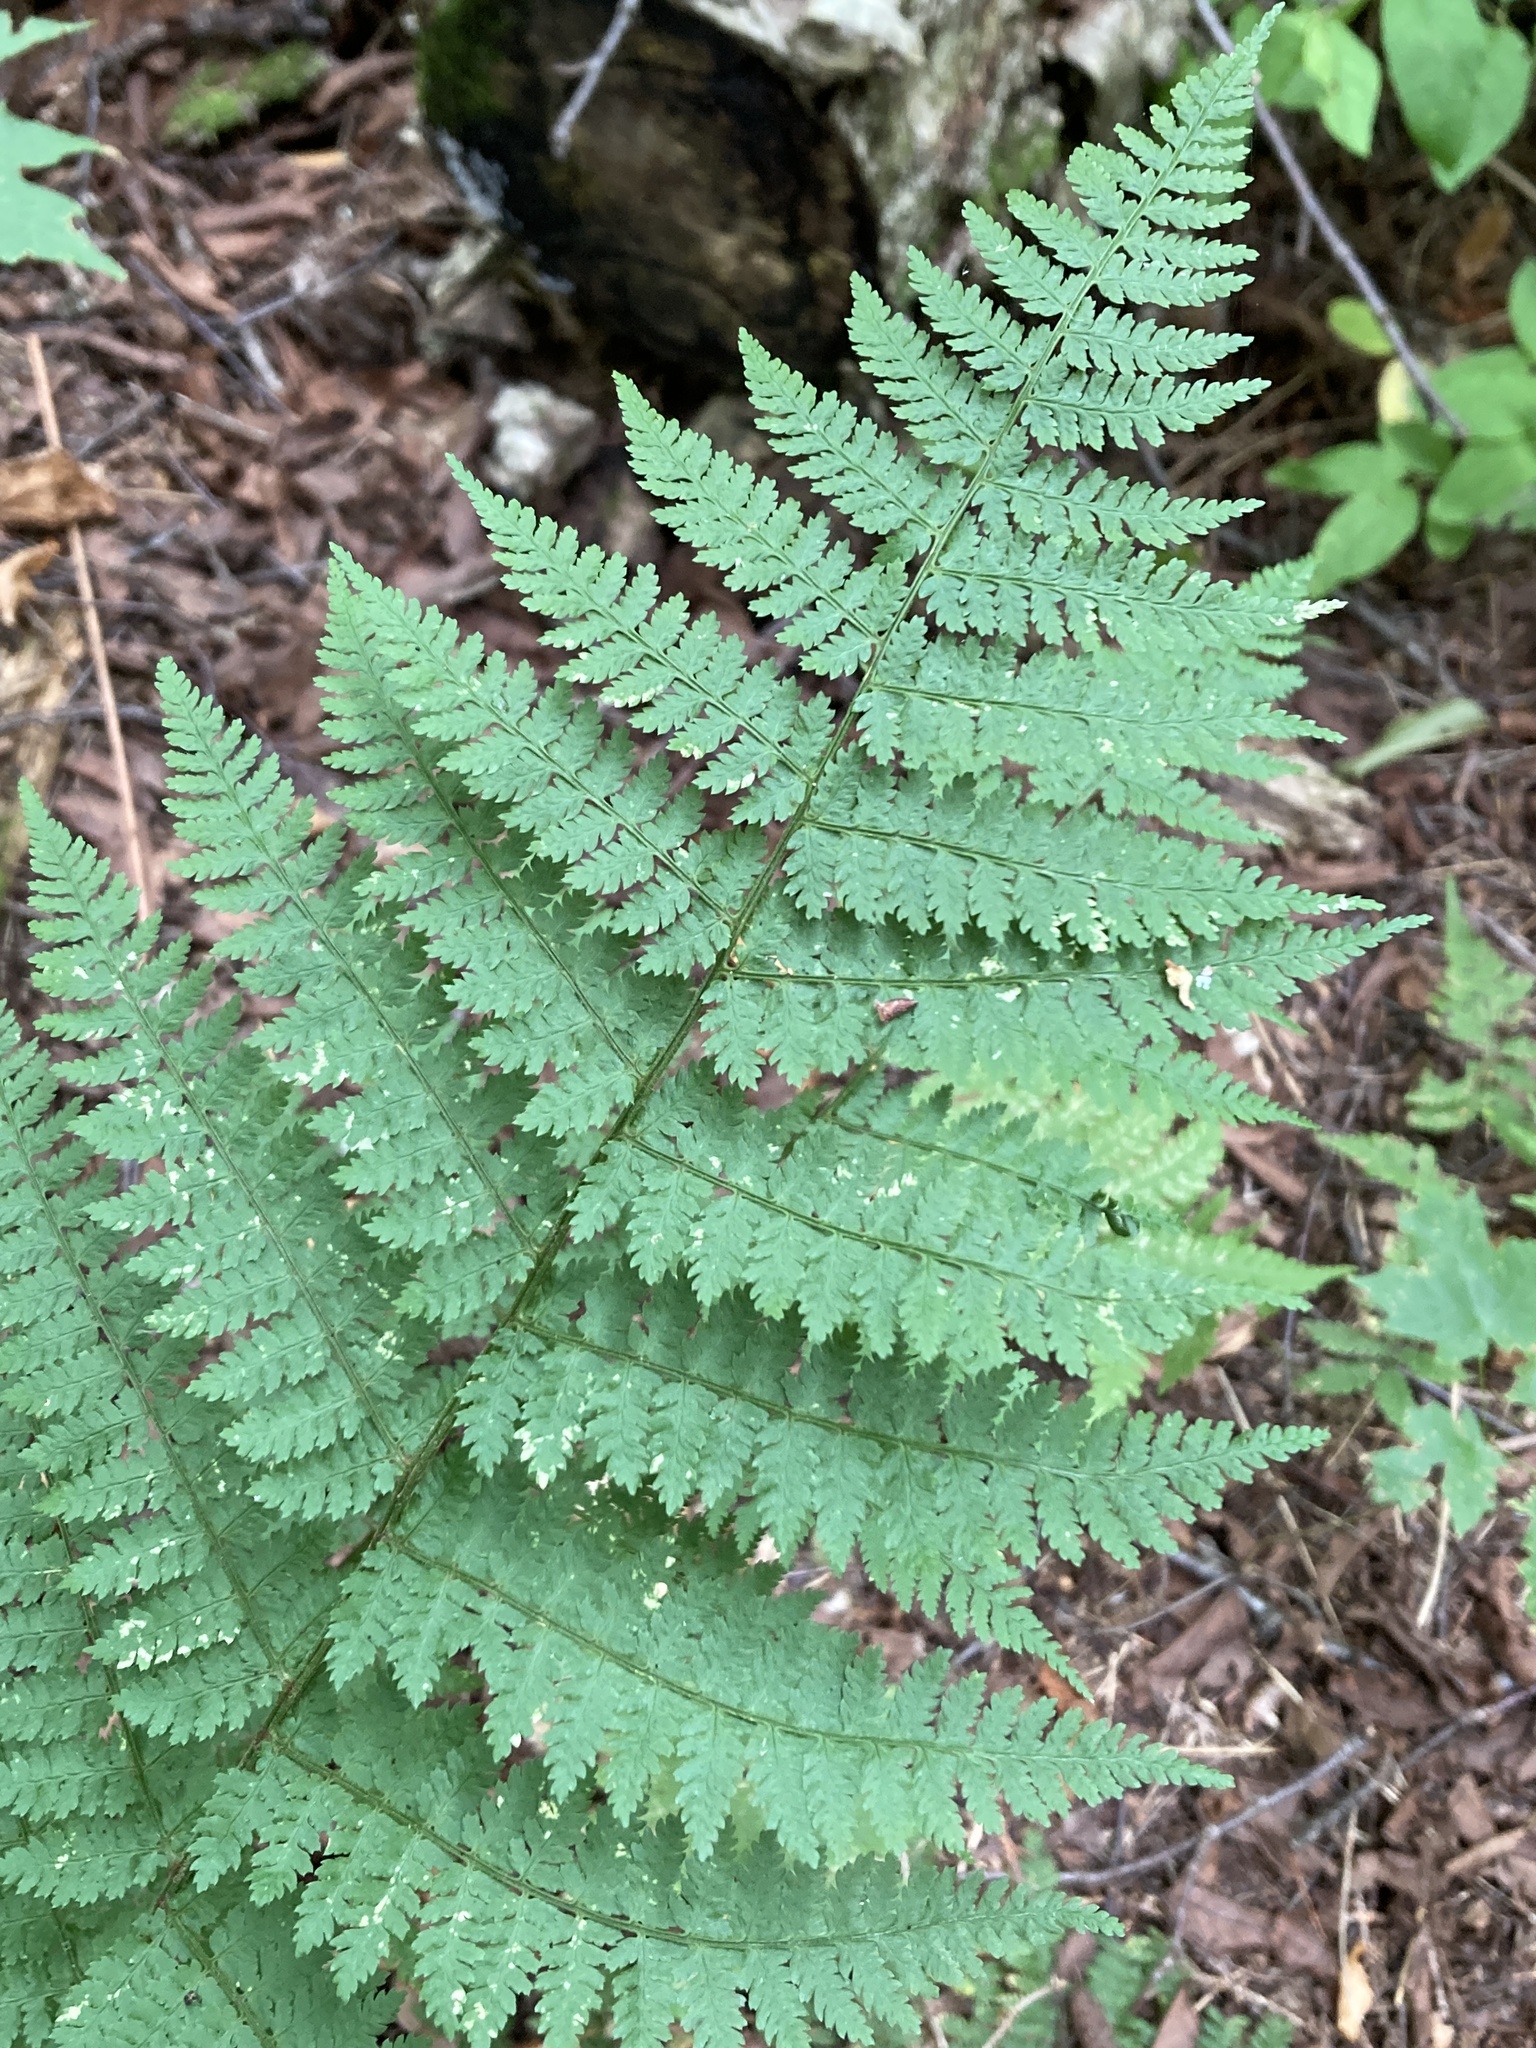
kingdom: Plantae
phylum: Tracheophyta
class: Polypodiopsida
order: Polypodiales
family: Dryopteridaceae
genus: Dryopteris
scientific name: Dryopteris intermedia
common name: Evergreen wood fern
